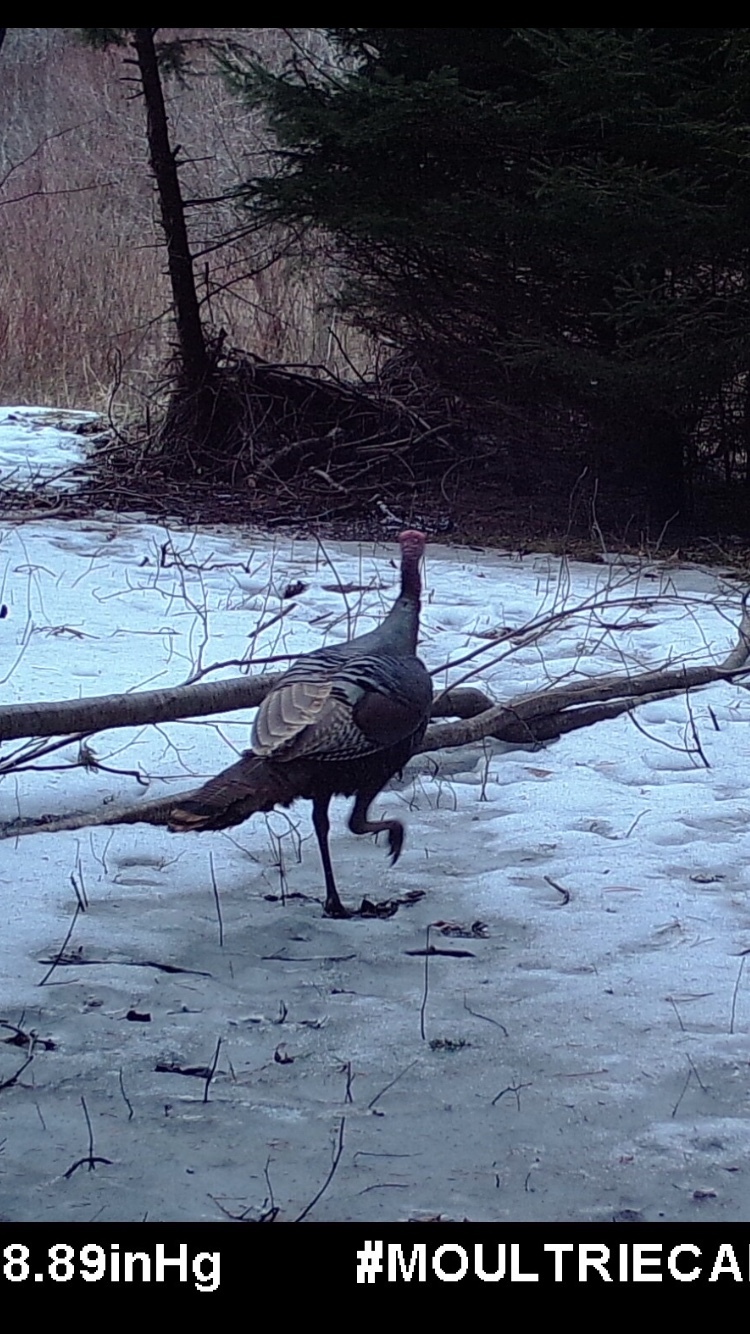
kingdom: Animalia
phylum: Chordata
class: Aves
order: Galliformes
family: Phasianidae
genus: Meleagris
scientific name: Meleagris gallopavo
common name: Wild turkey
